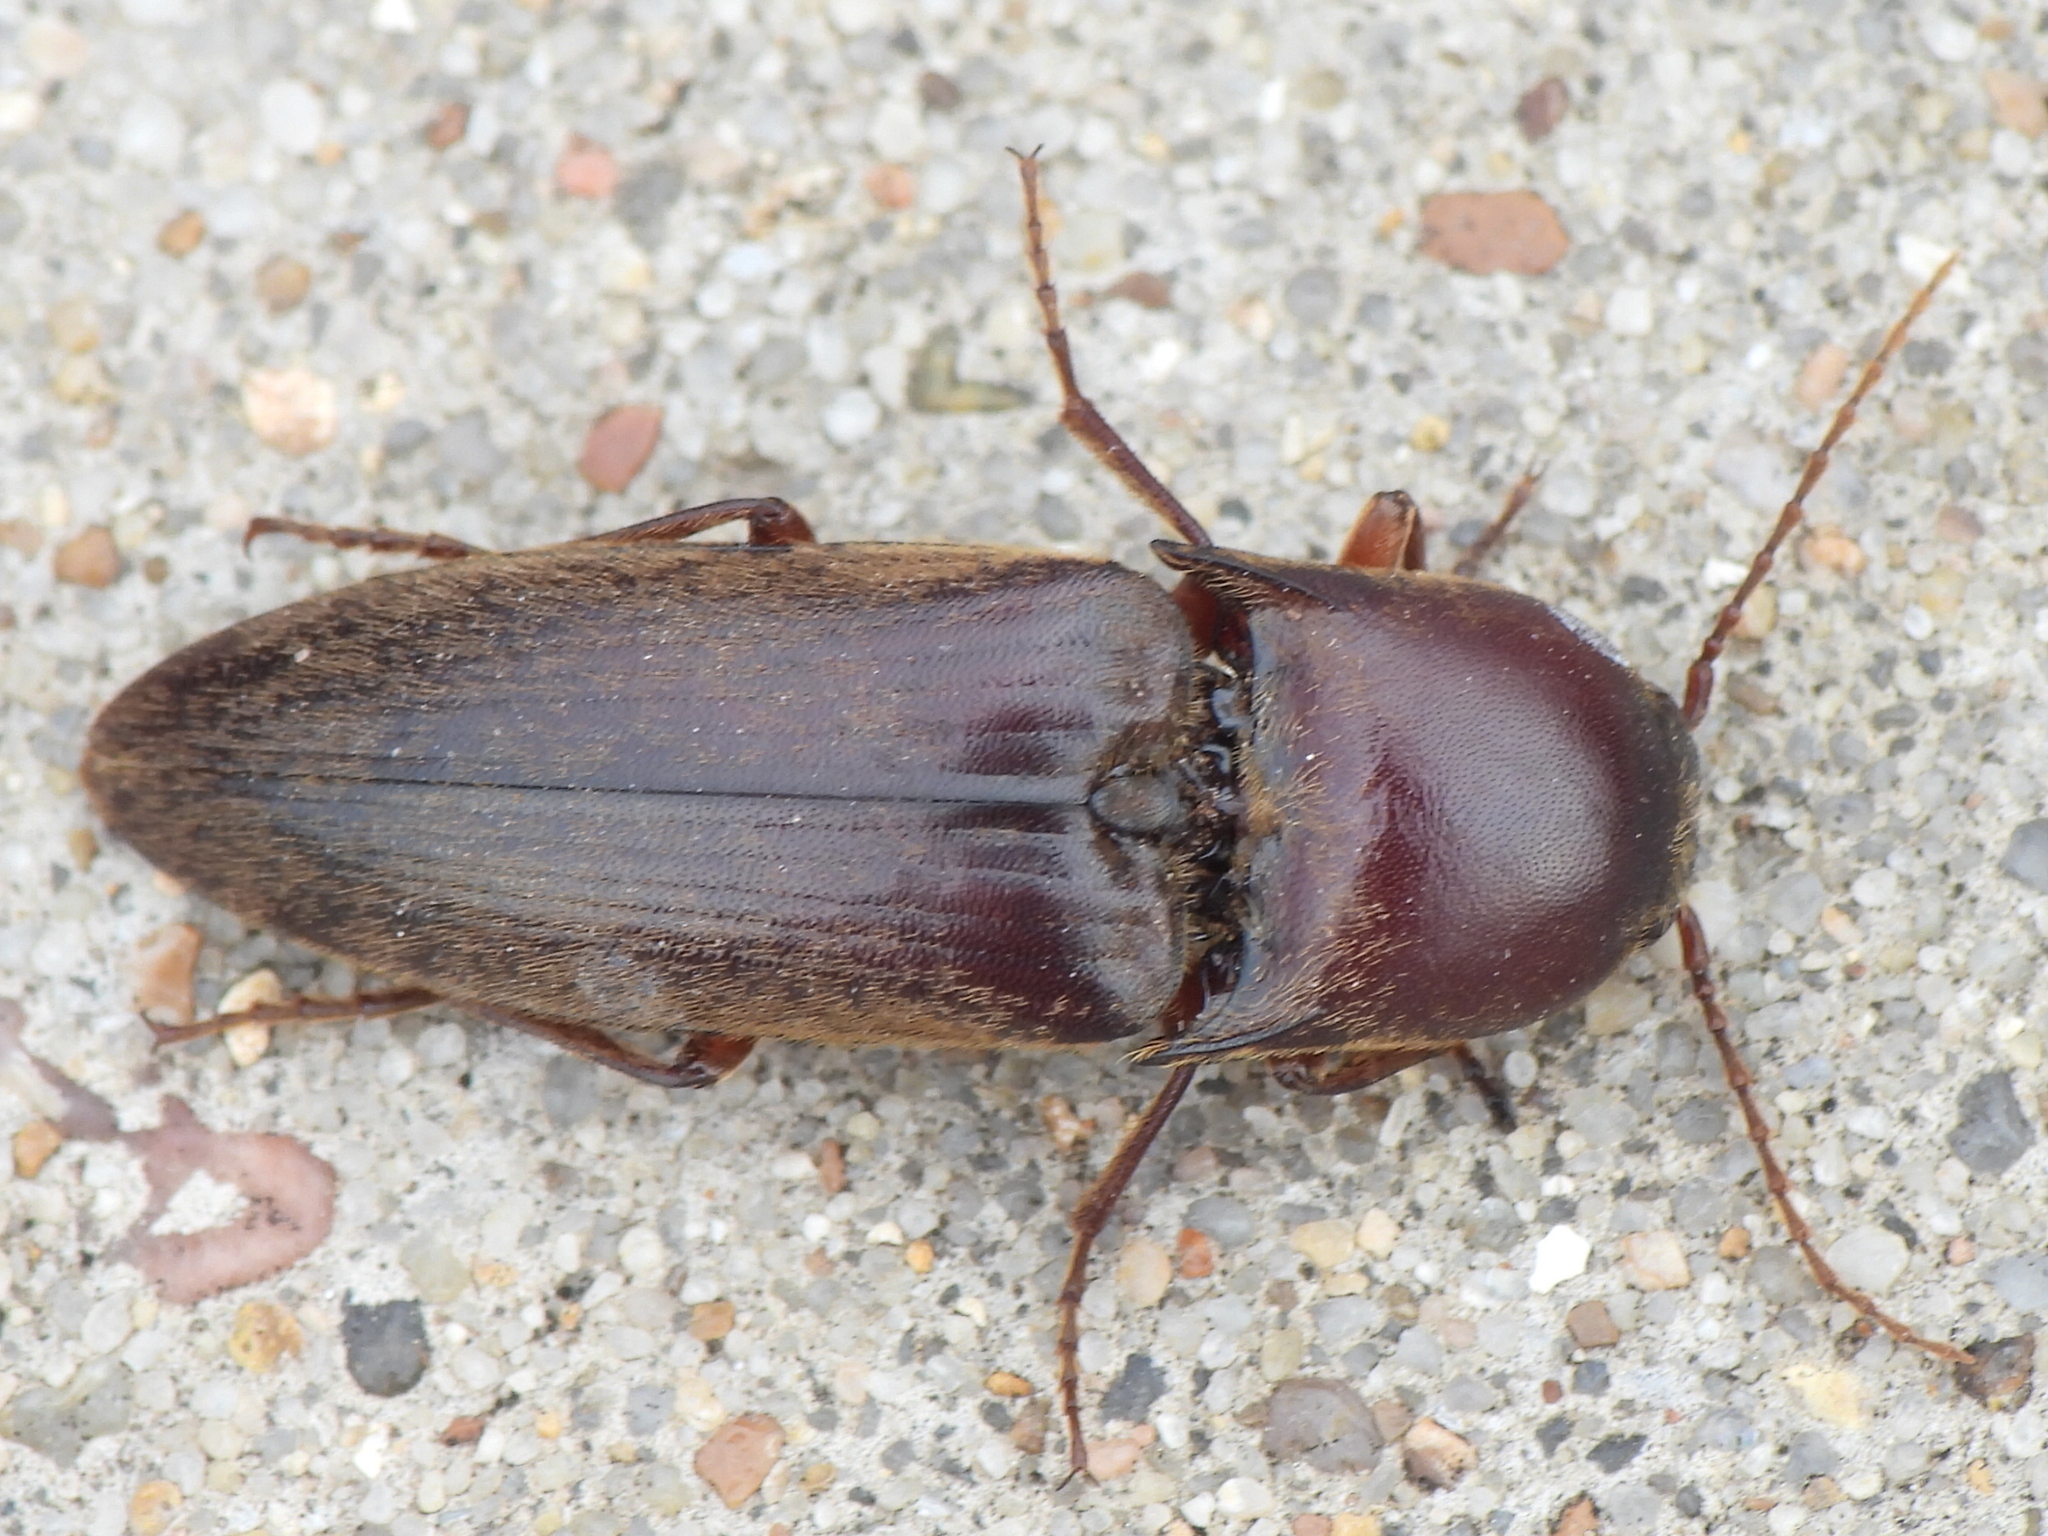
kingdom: Animalia
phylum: Arthropoda
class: Insecta
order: Coleoptera
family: Elateridae
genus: Diplostethus
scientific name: Diplostethus
